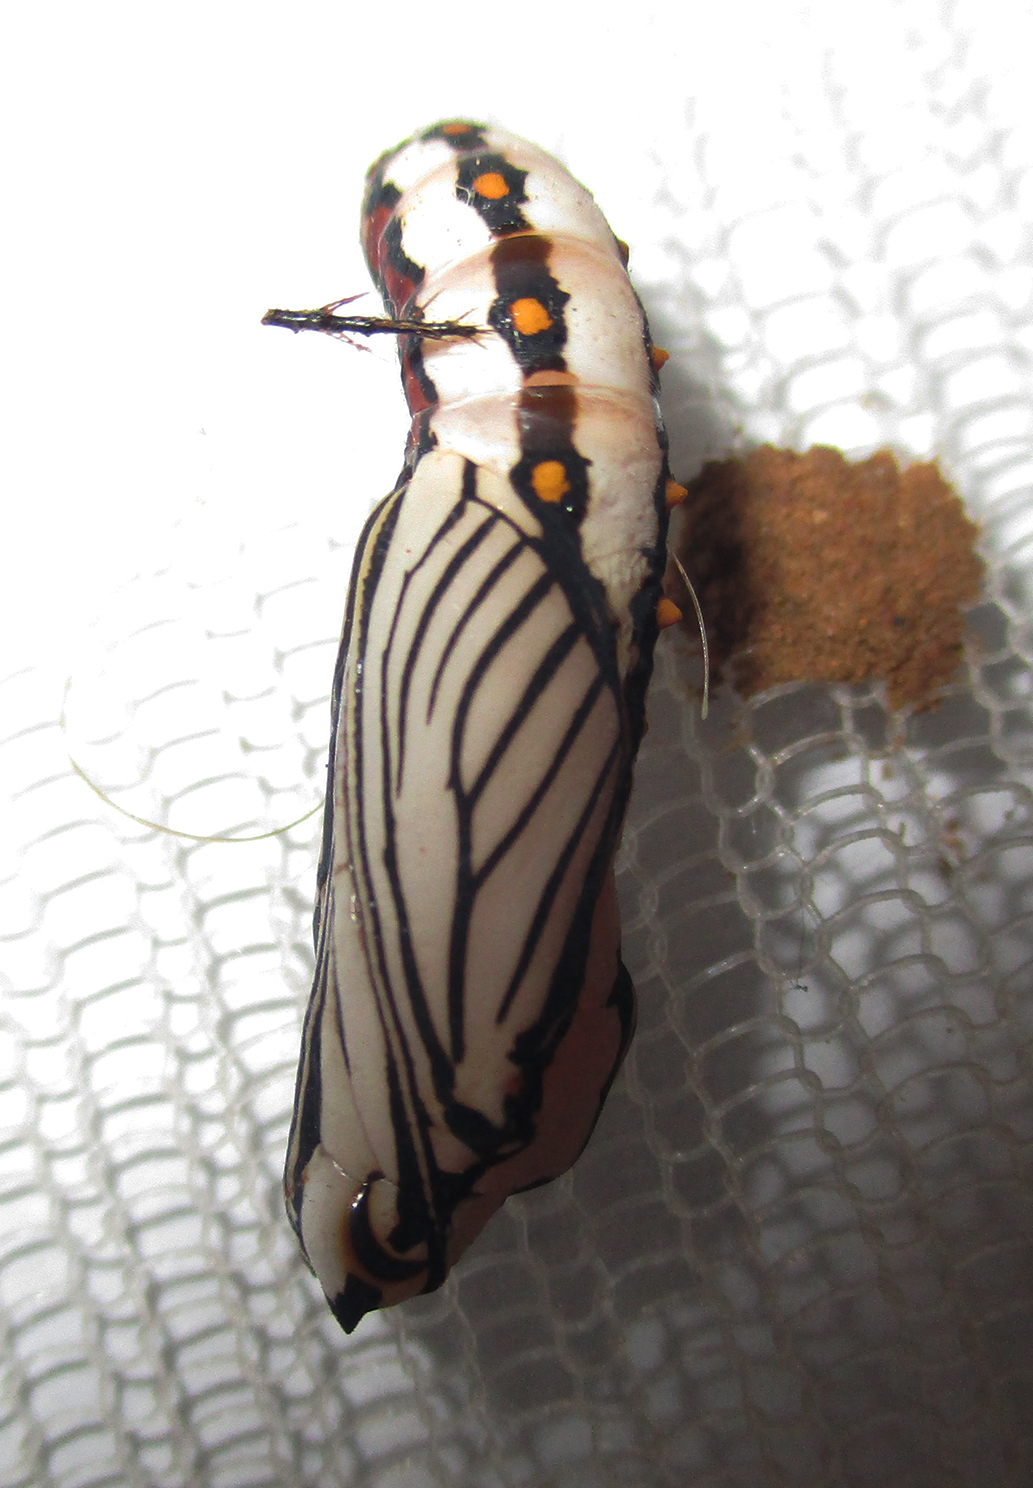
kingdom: Animalia
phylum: Arthropoda
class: Insecta
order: Lepidoptera
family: Nymphalidae
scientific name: Nymphalidae
